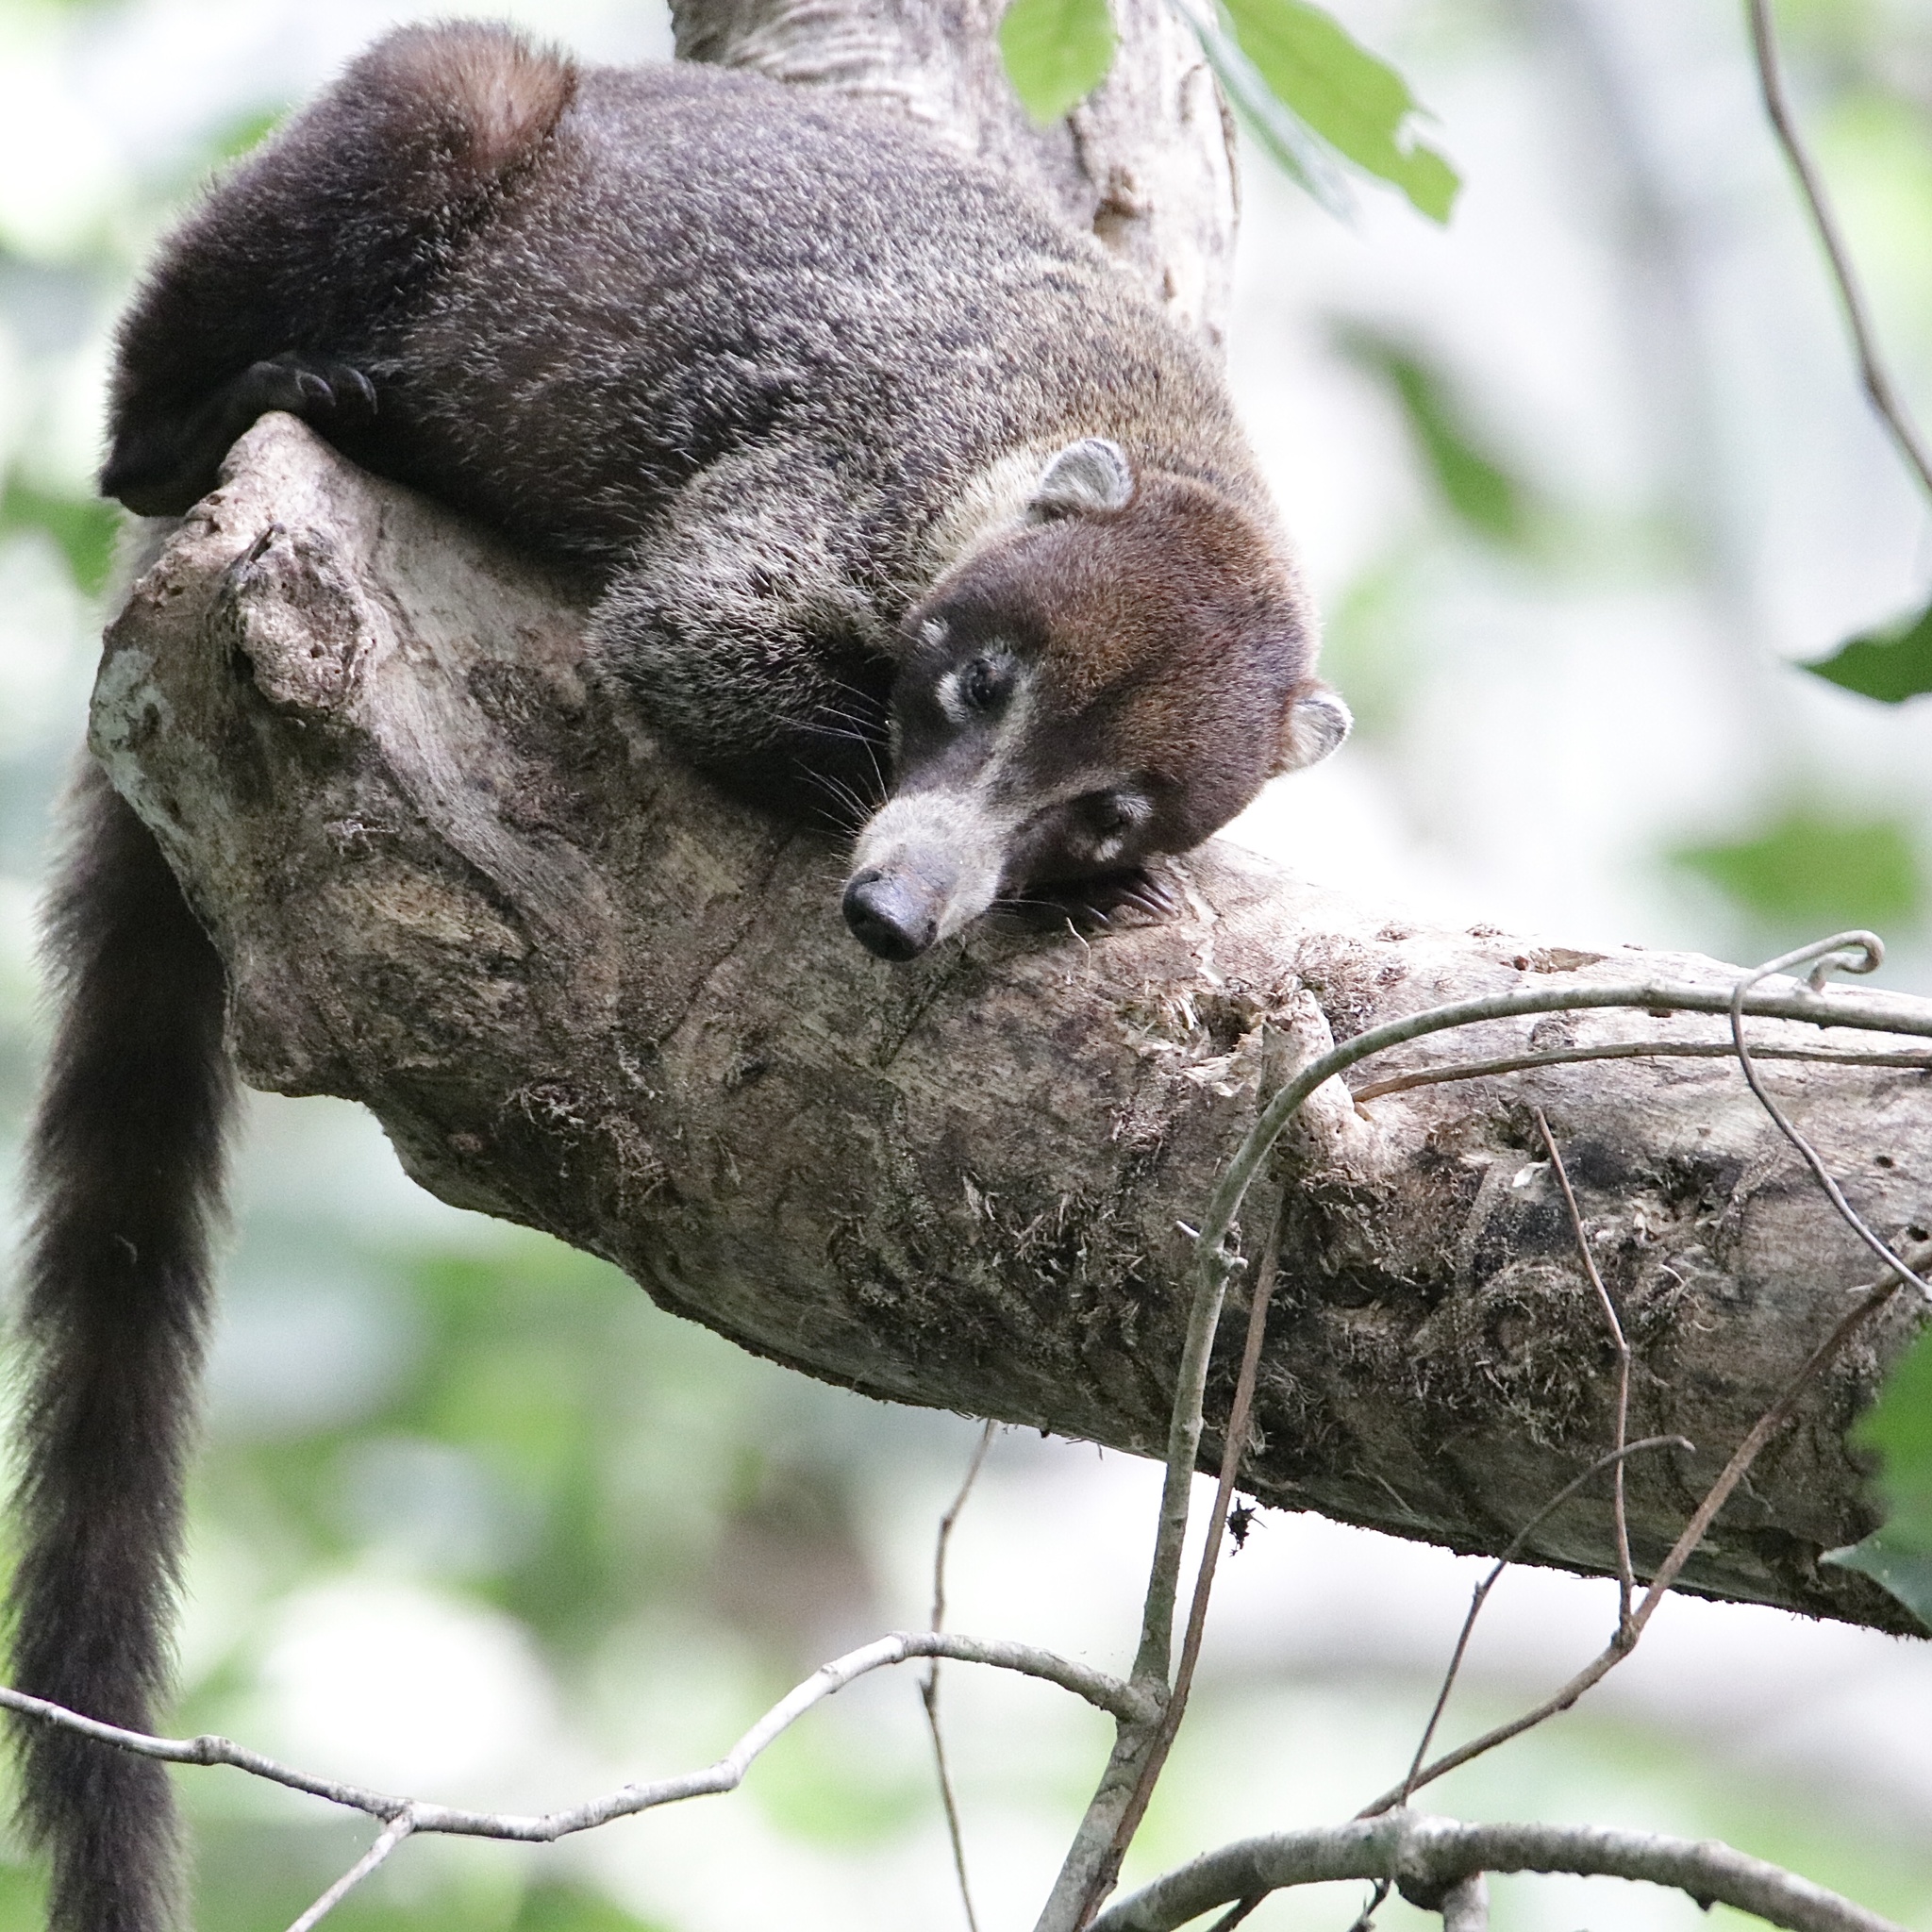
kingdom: Animalia
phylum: Chordata
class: Mammalia
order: Carnivora
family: Procyonidae
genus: Nasua
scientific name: Nasua narica
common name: White-nosed coati
